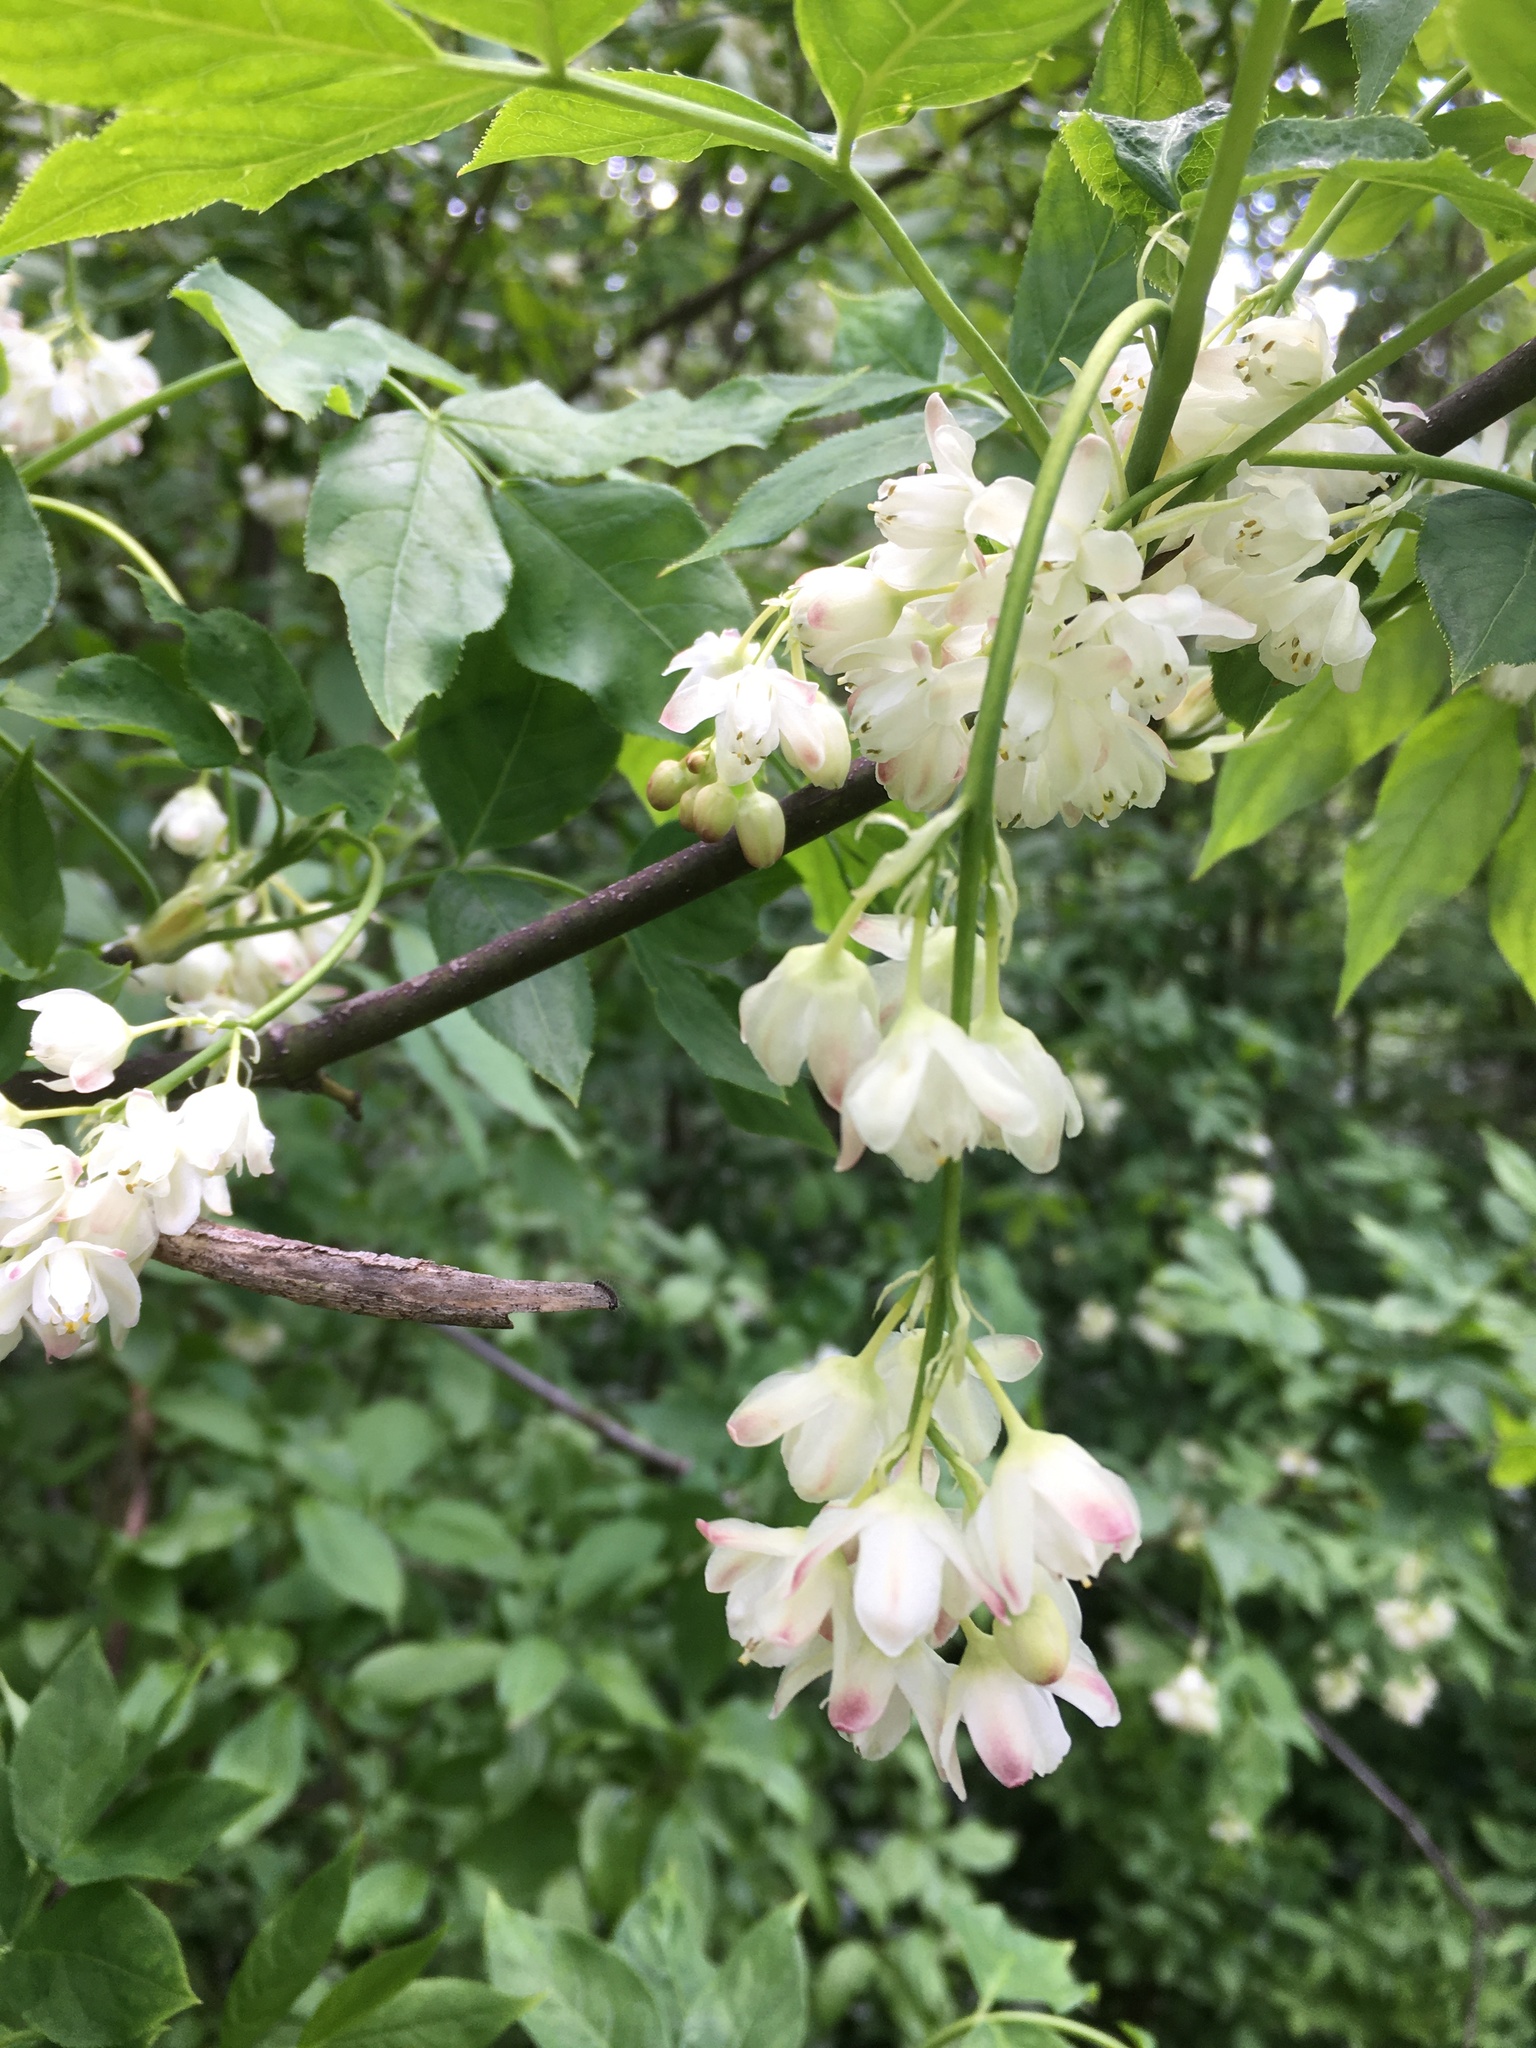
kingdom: Plantae
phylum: Tracheophyta
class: Magnoliopsida
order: Crossosomatales
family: Staphyleaceae
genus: Staphylea
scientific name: Staphylea pinnata
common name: Bladdernut
